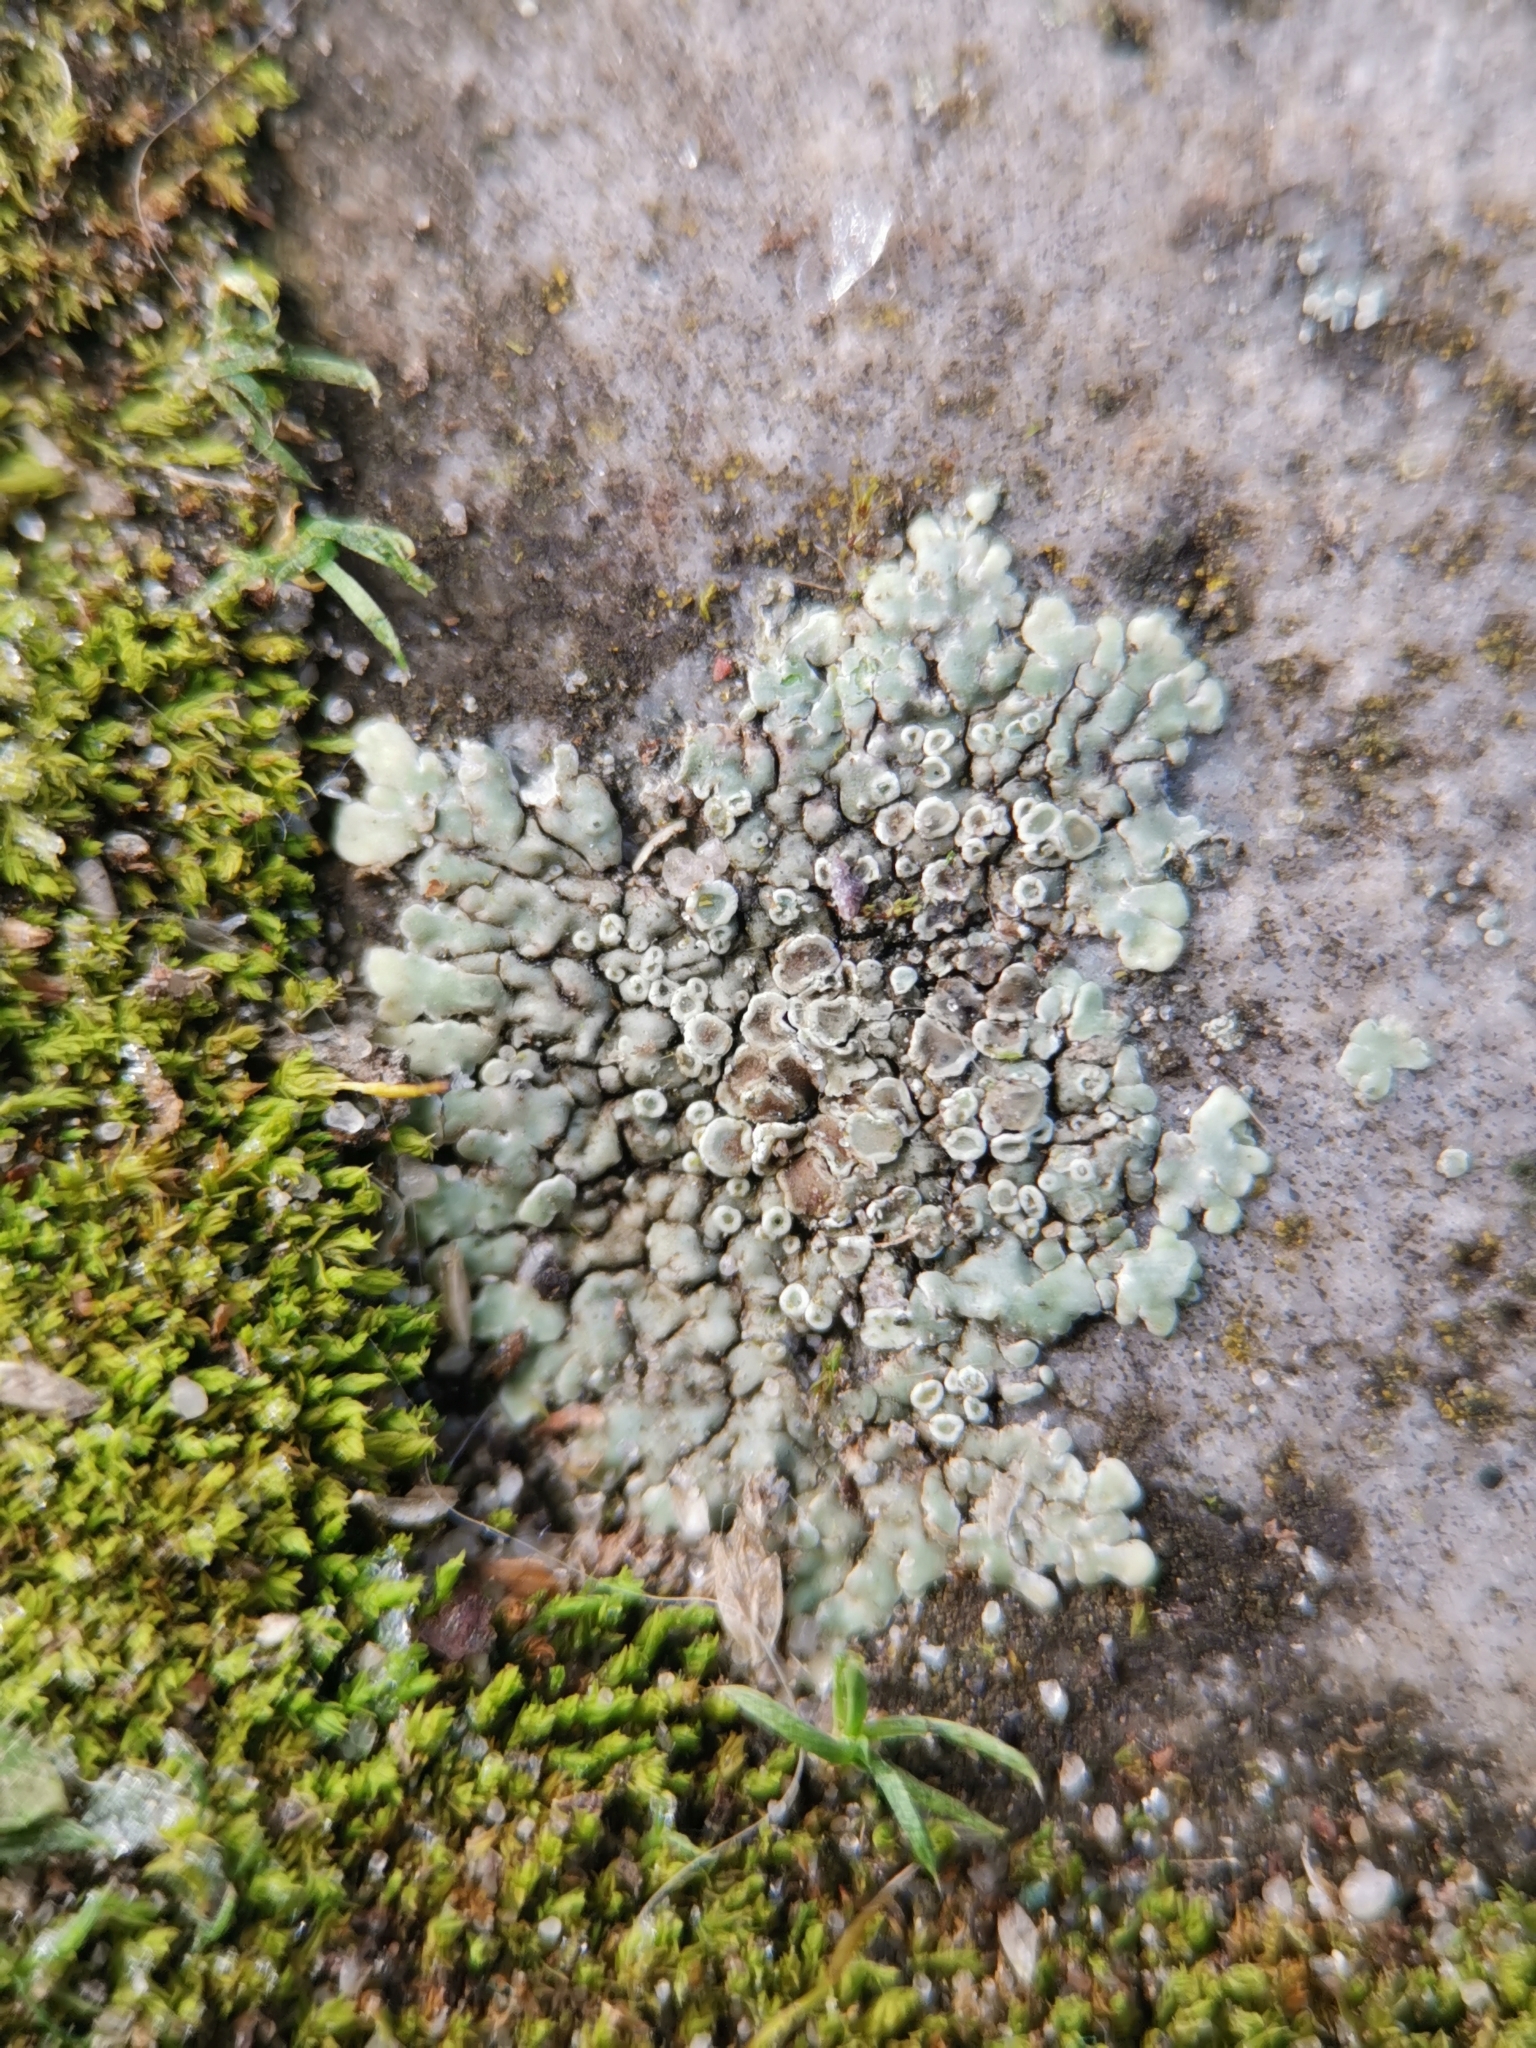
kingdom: Fungi
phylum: Ascomycota
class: Lecanoromycetes
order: Lecanorales
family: Lecanoraceae
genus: Protoparmeliopsis
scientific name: Protoparmeliopsis muralis
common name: Stonewall rim lichen
